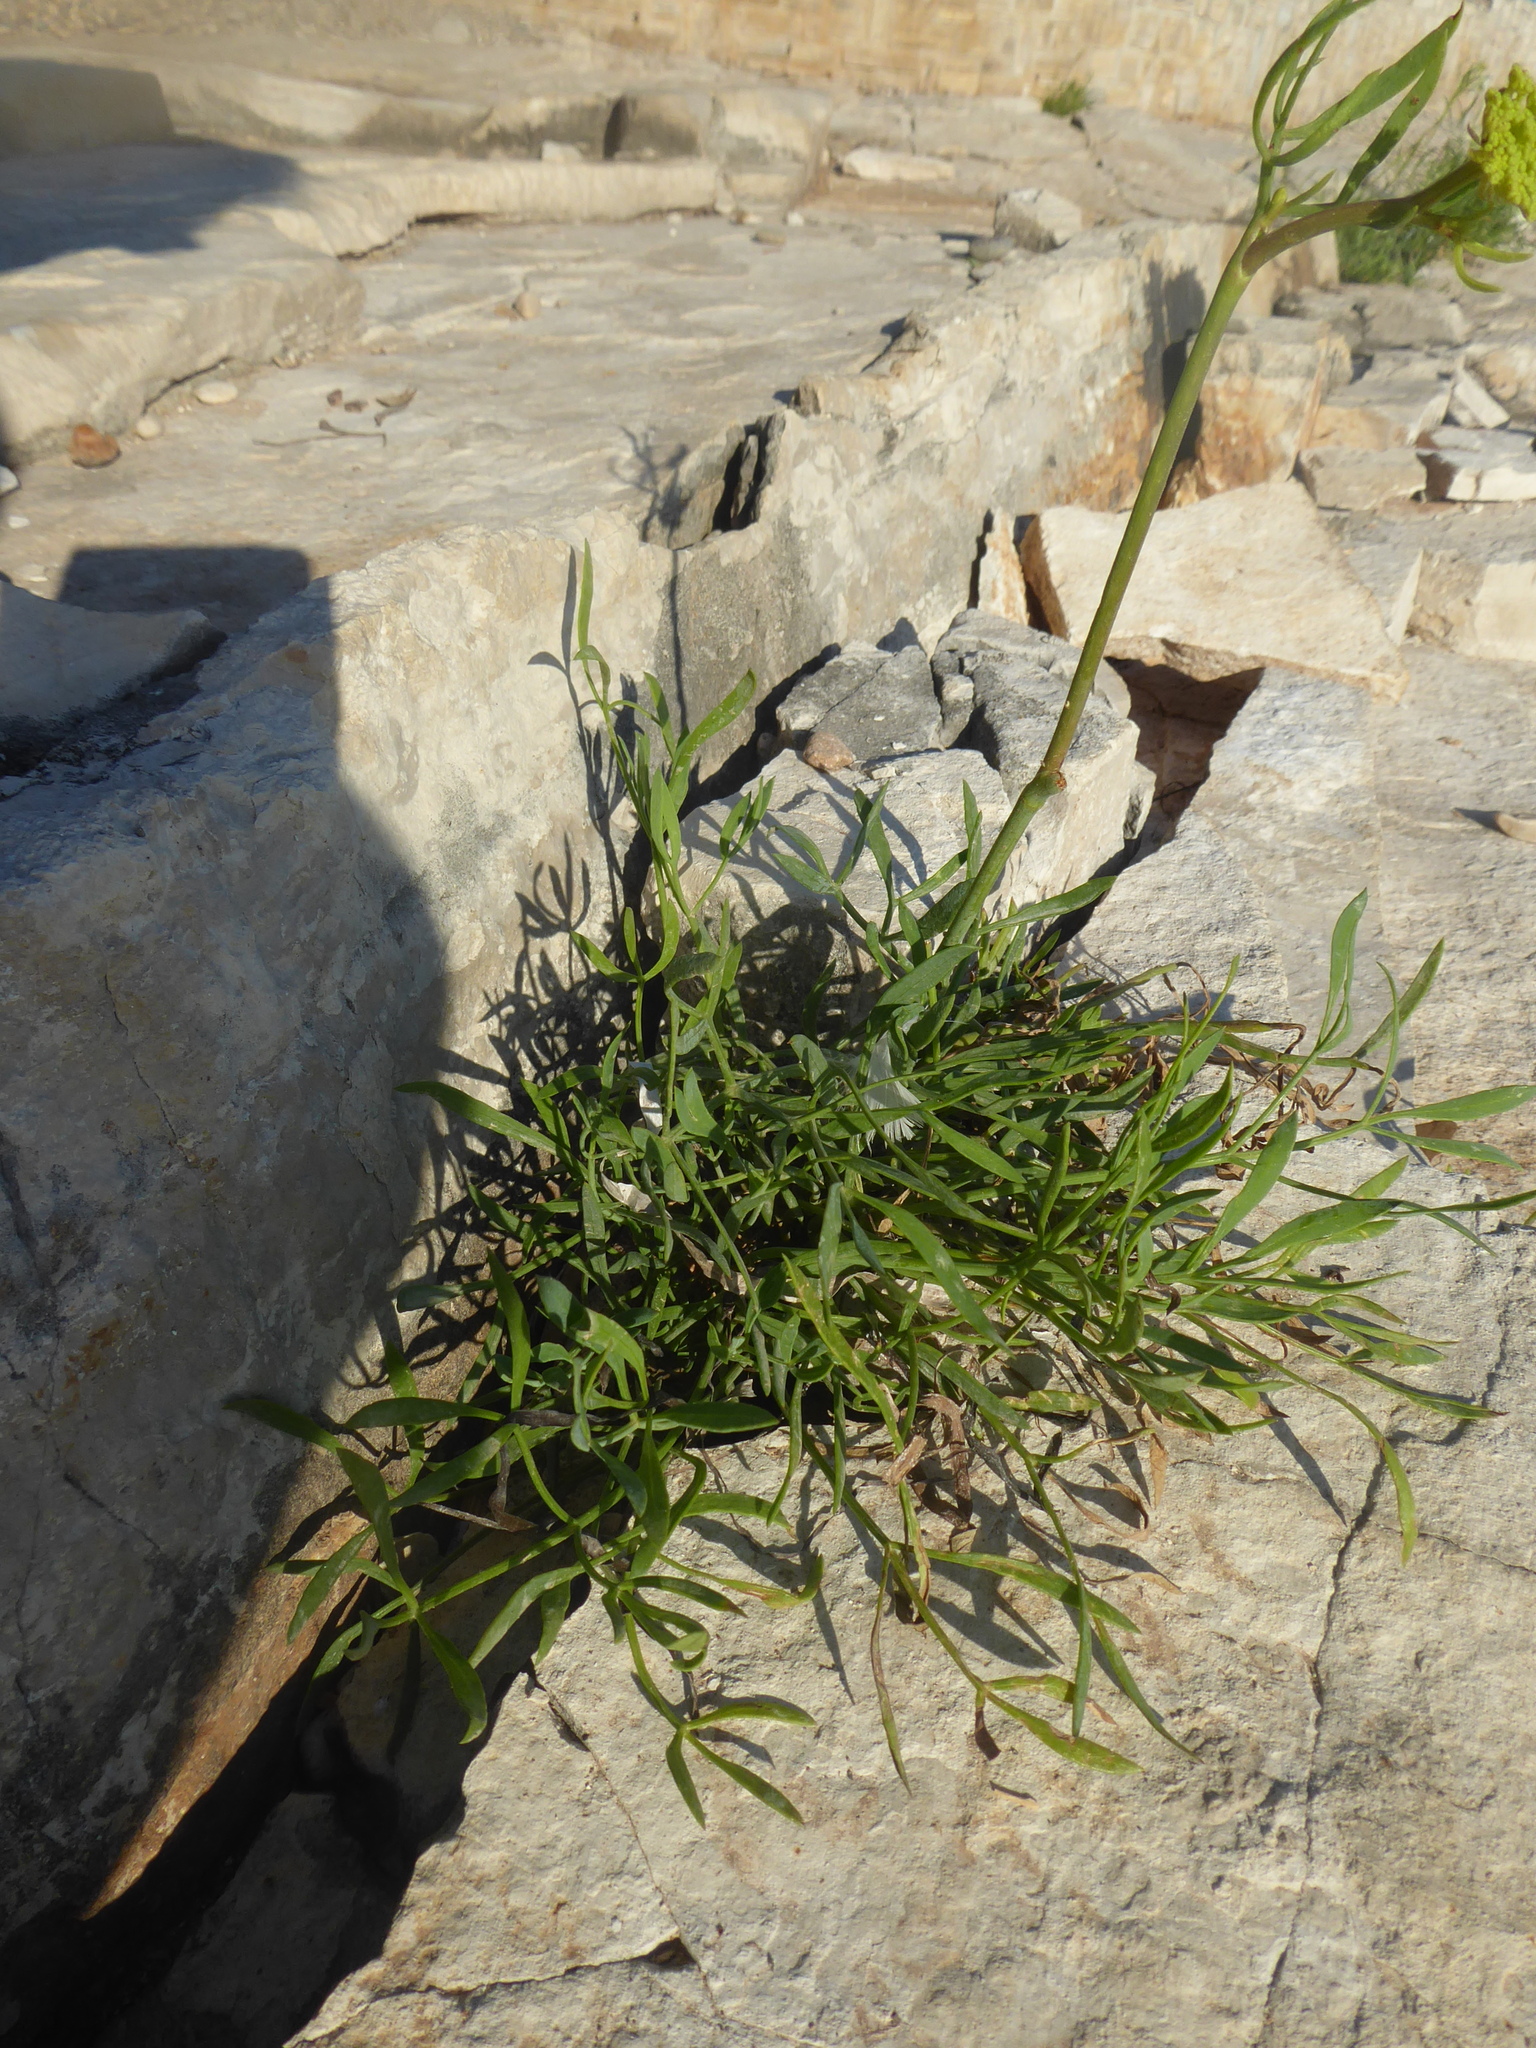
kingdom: Plantae
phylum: Tracheophyta
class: Magnoliopsida
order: Apiales
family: Apiaceae
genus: Crithmum
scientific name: Crithmum maritimum
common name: Rock samphire
